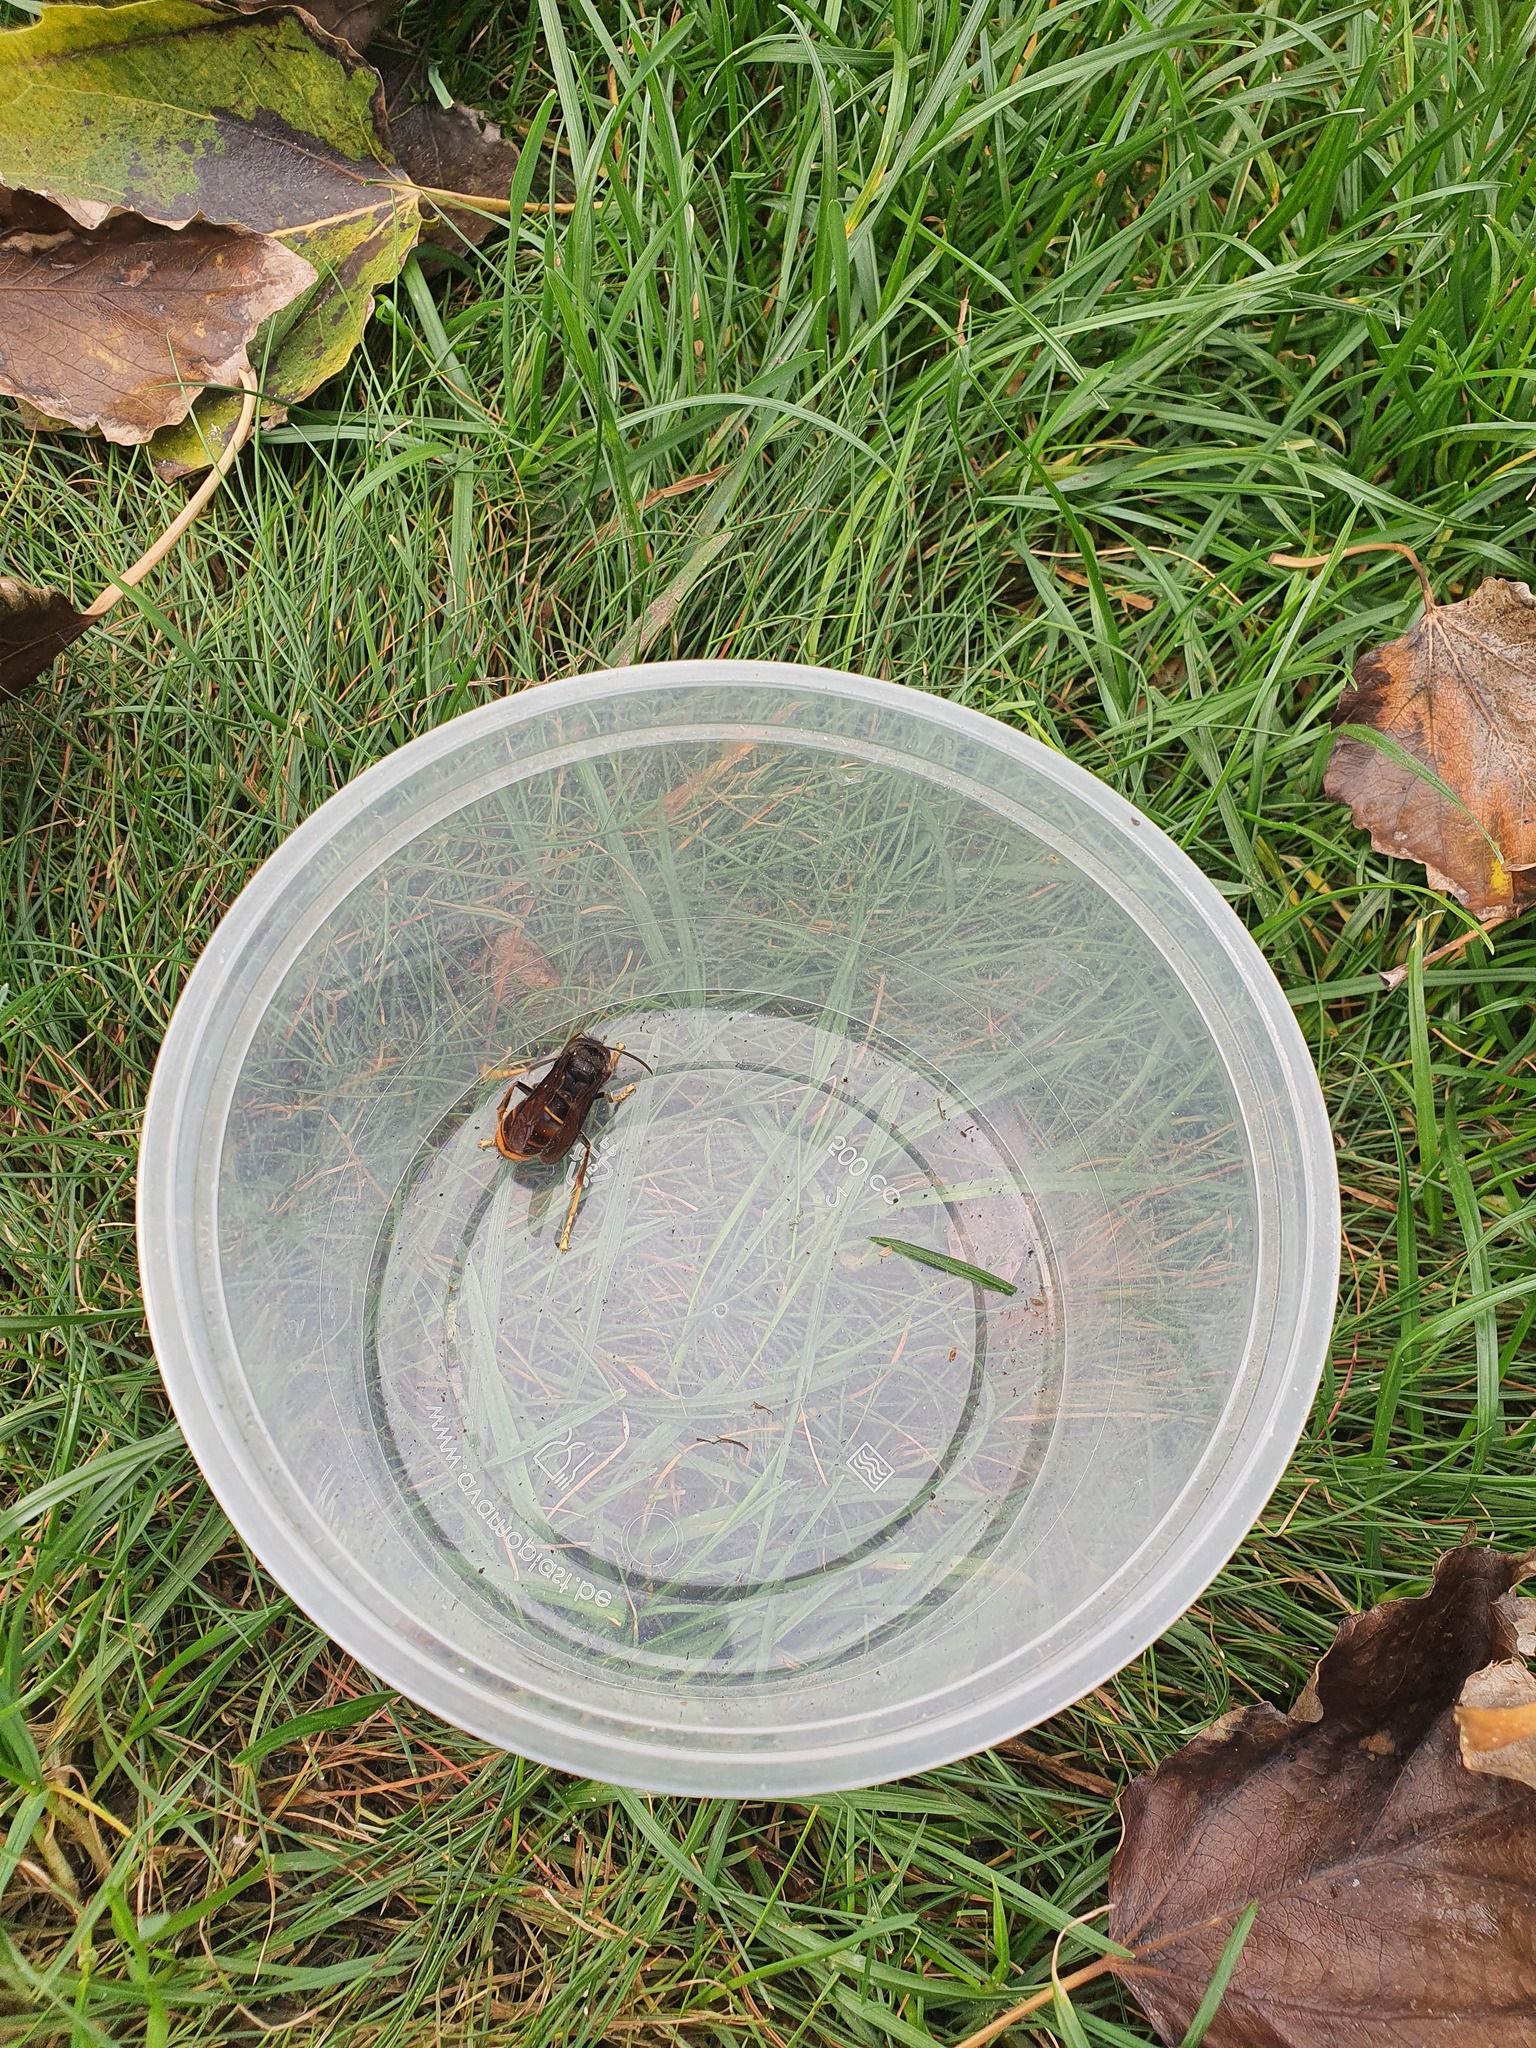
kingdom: Animalia
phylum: Arthropoda
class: Insecta
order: Hymenoptera
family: Vespidae
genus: Vespa
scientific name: Vespa velutina
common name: Asian hornet
